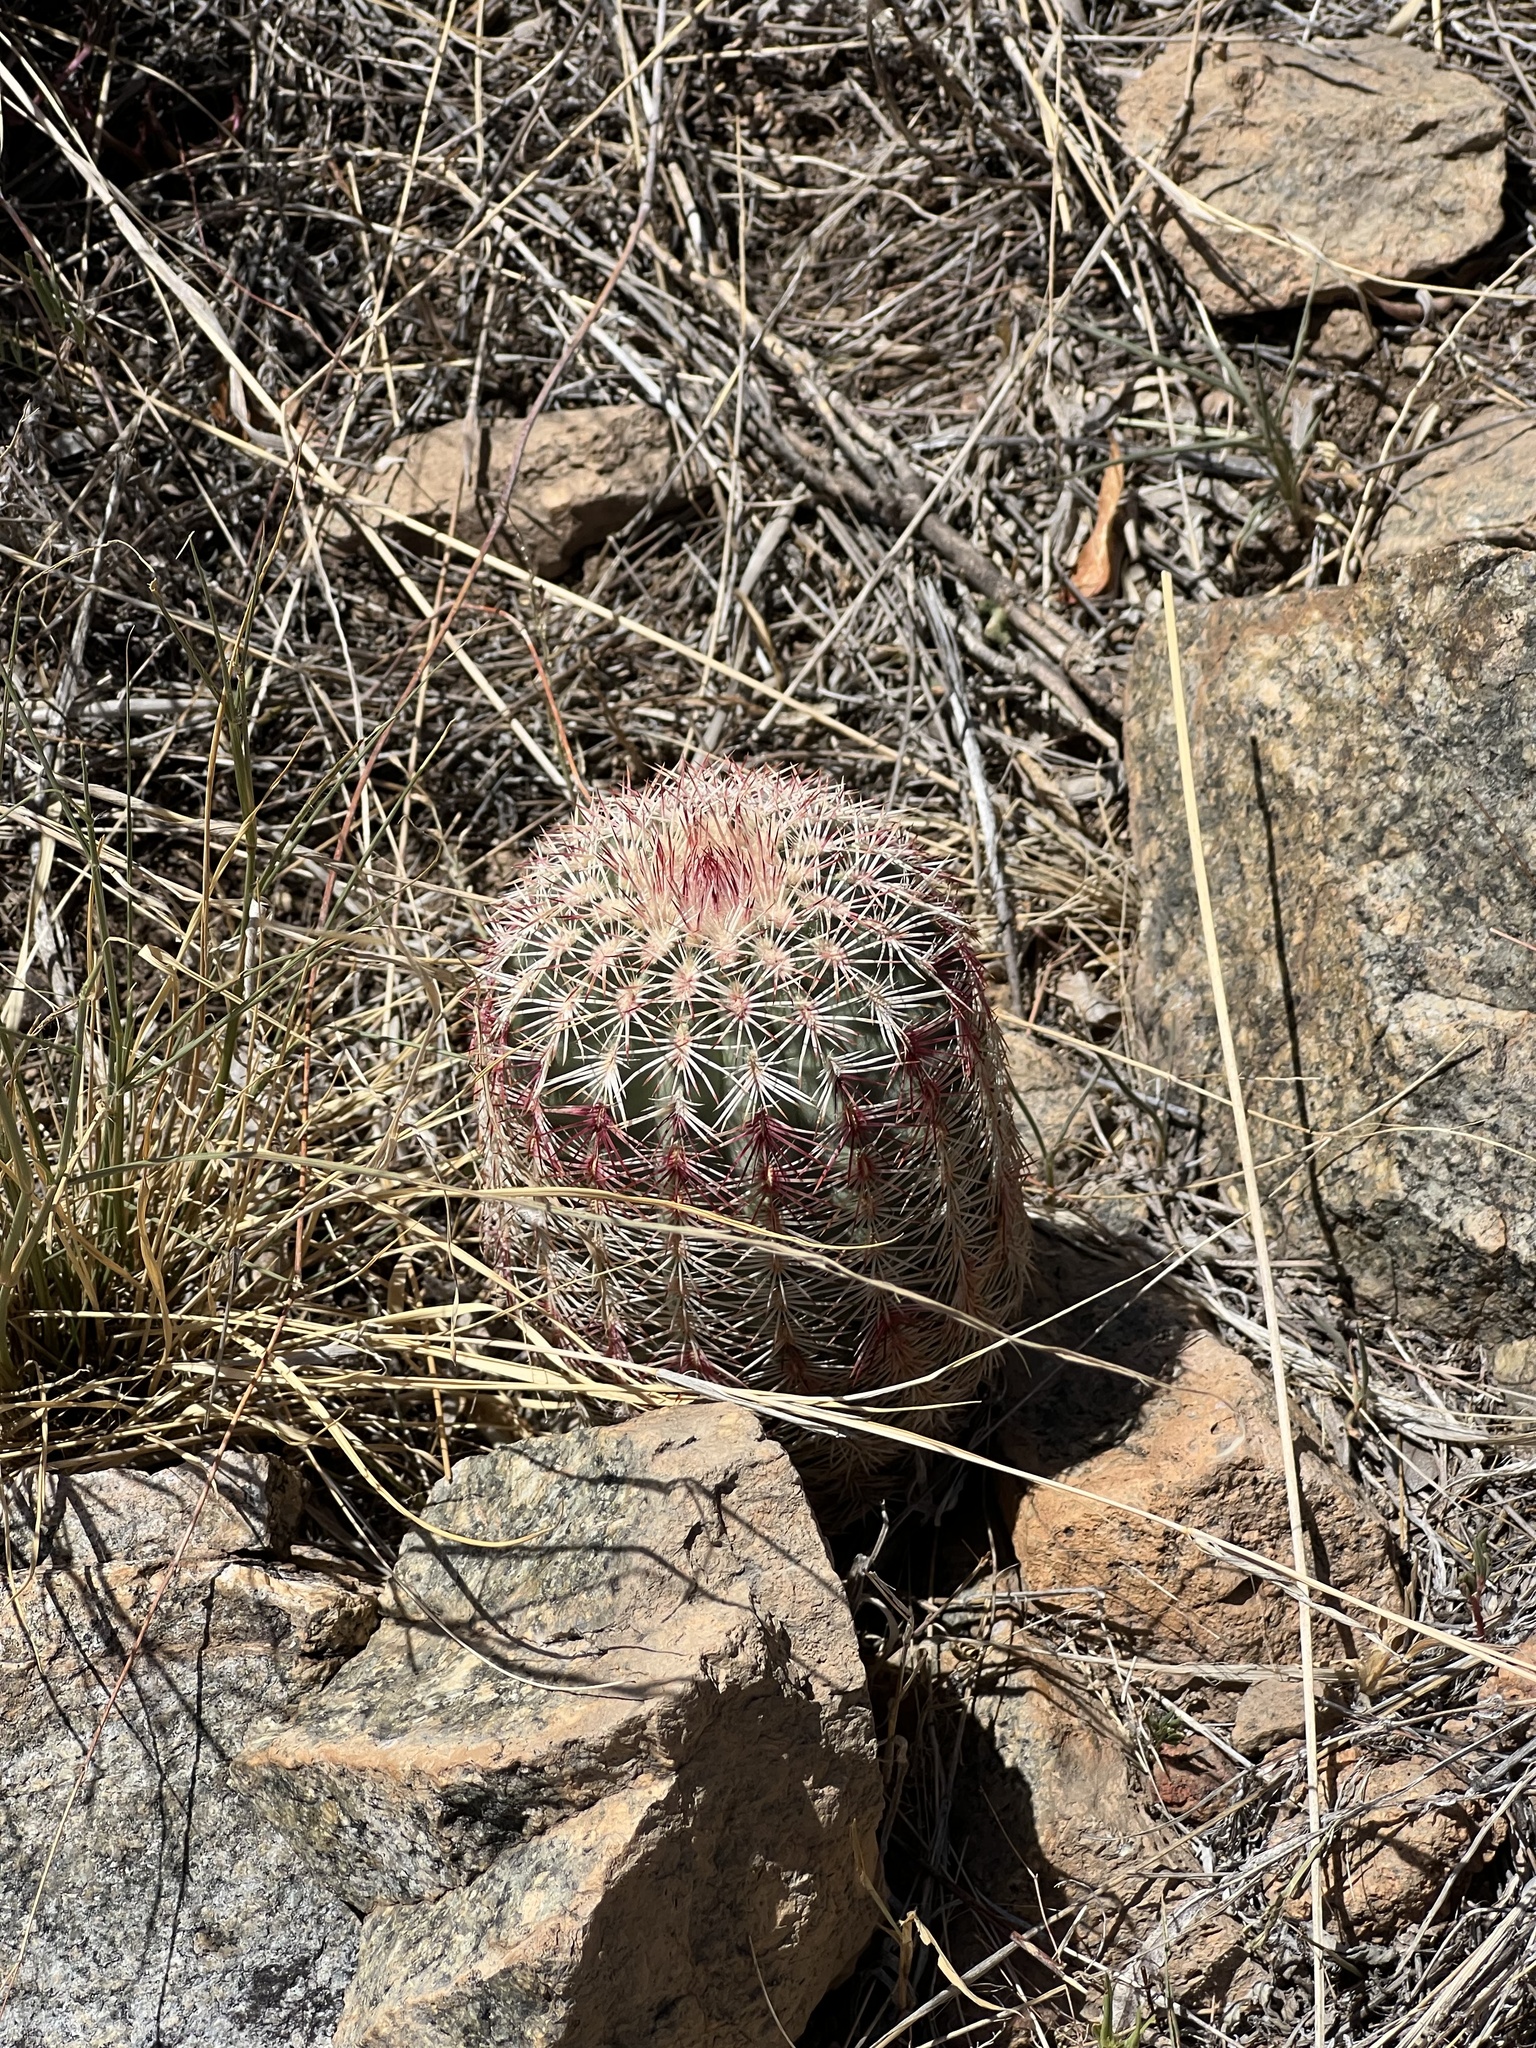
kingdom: Plantae
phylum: Tracheophyta
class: Magnoliopsida
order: Caryophyllales
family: Cactaceae
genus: Echinocereus
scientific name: Echinocereus rigidissimus
